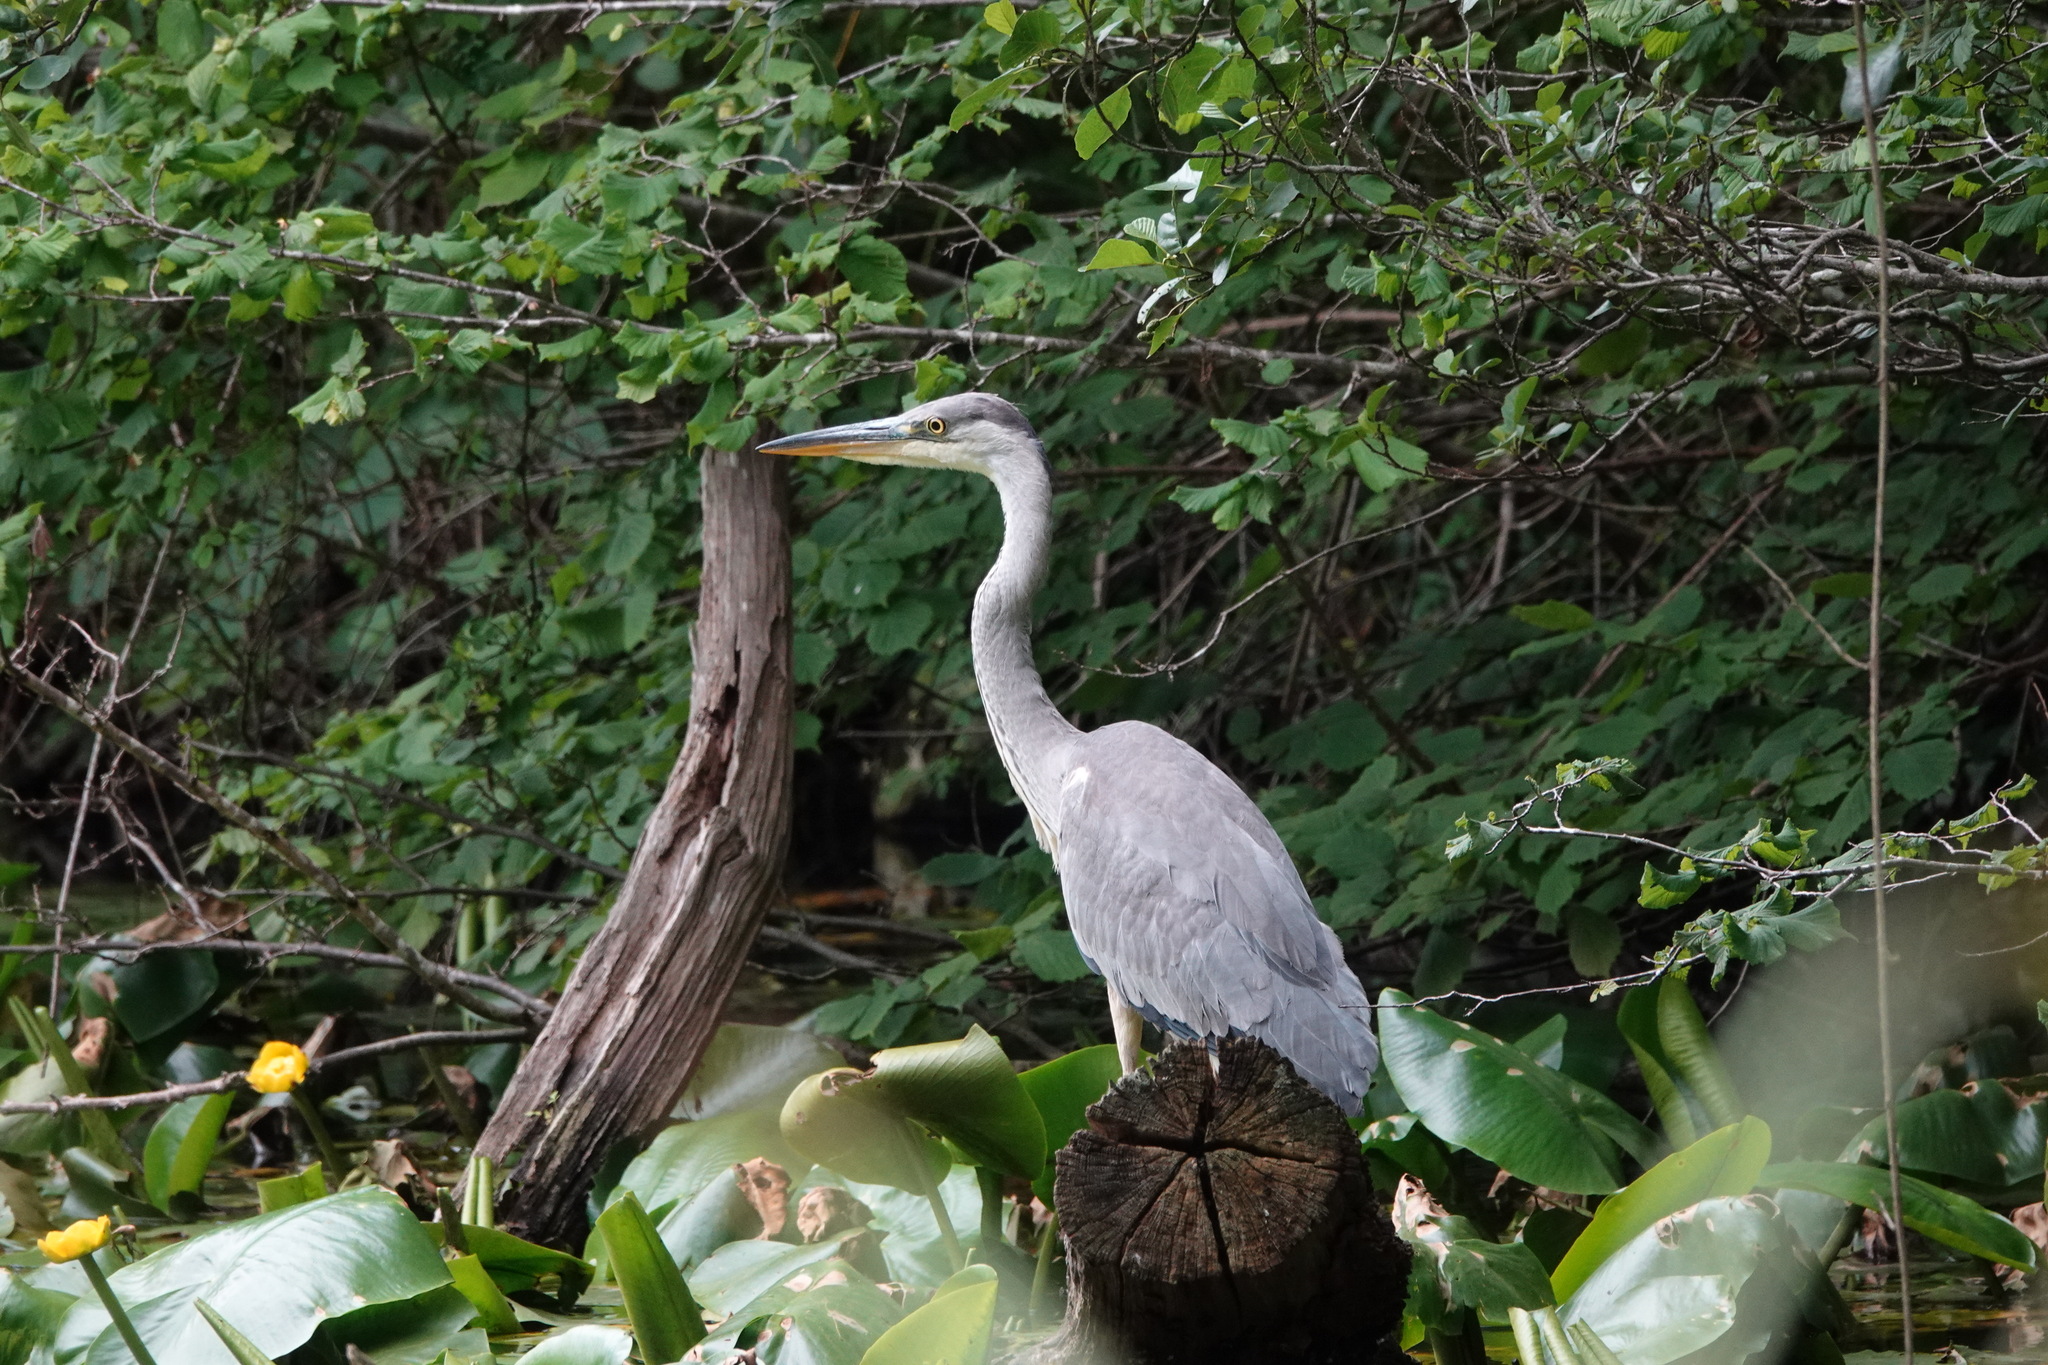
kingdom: Animalia
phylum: Chordata
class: Aves
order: Pelecaniformes
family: Ardeidae
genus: Ardea
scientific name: Ardea cinerea
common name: Grey heron
